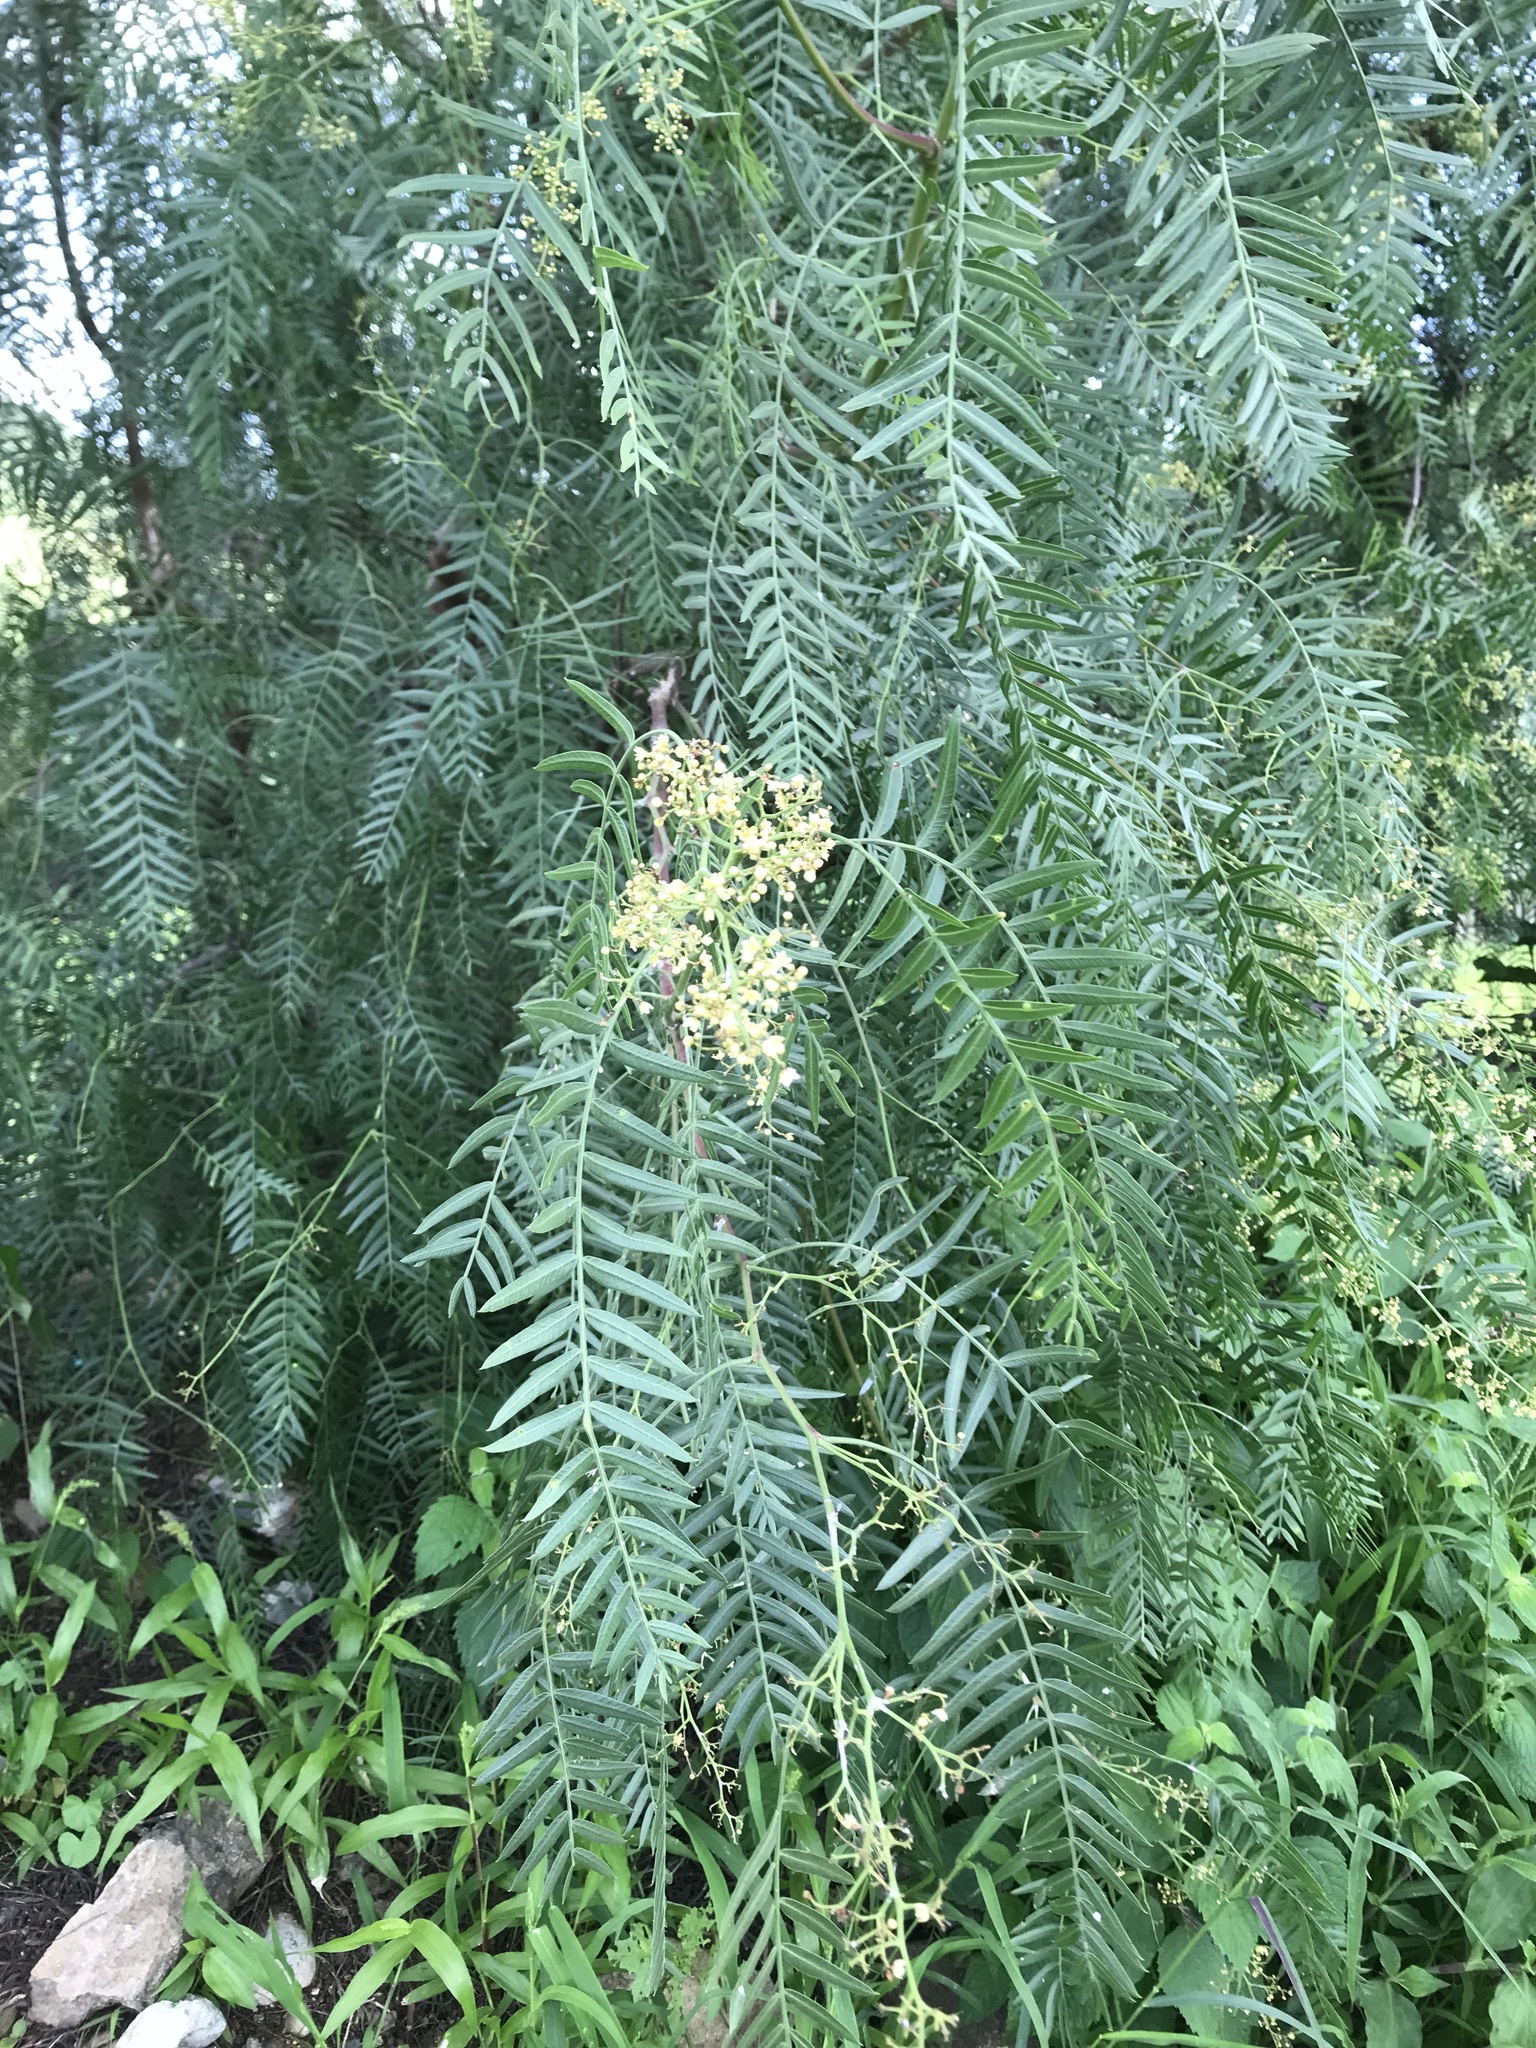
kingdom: Plantae
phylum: Tracheophyta
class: Magnoliopsida
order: Sapindales
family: Anacardiaceae
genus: Schinus
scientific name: Schinus molle
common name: Peruvian peppertree
